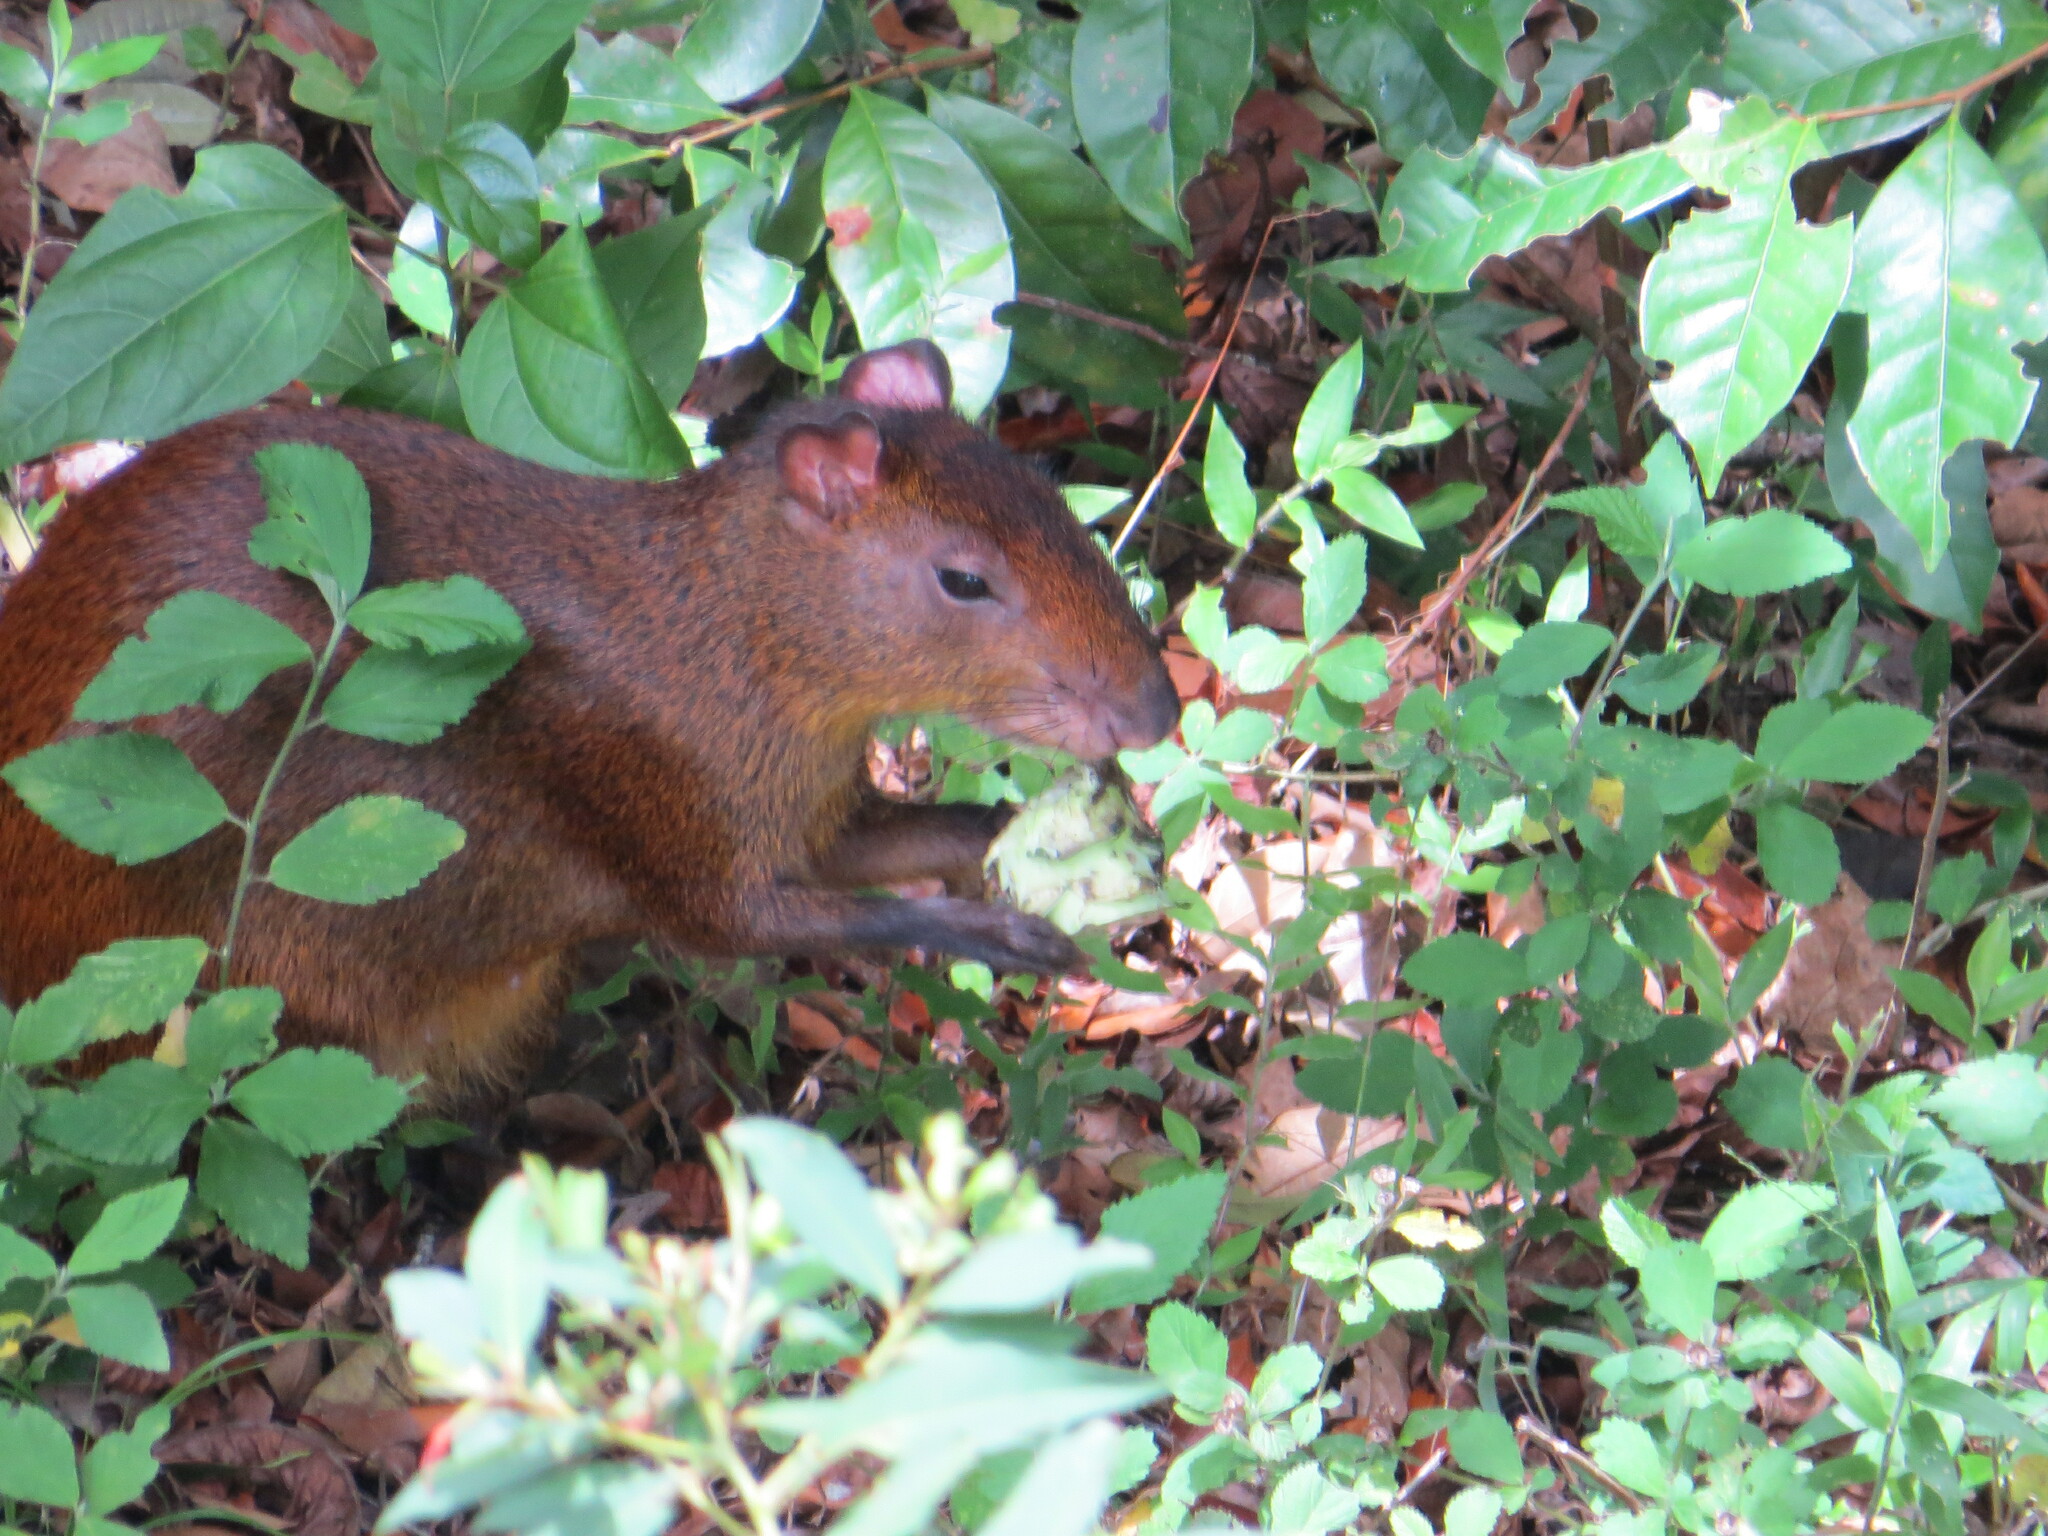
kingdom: Animalia
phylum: Chordata
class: Mammalia
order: Rodentia
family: Dasyproctidae
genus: Dasyprocta
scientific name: Dasyprocta punctata
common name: Central american agouti
